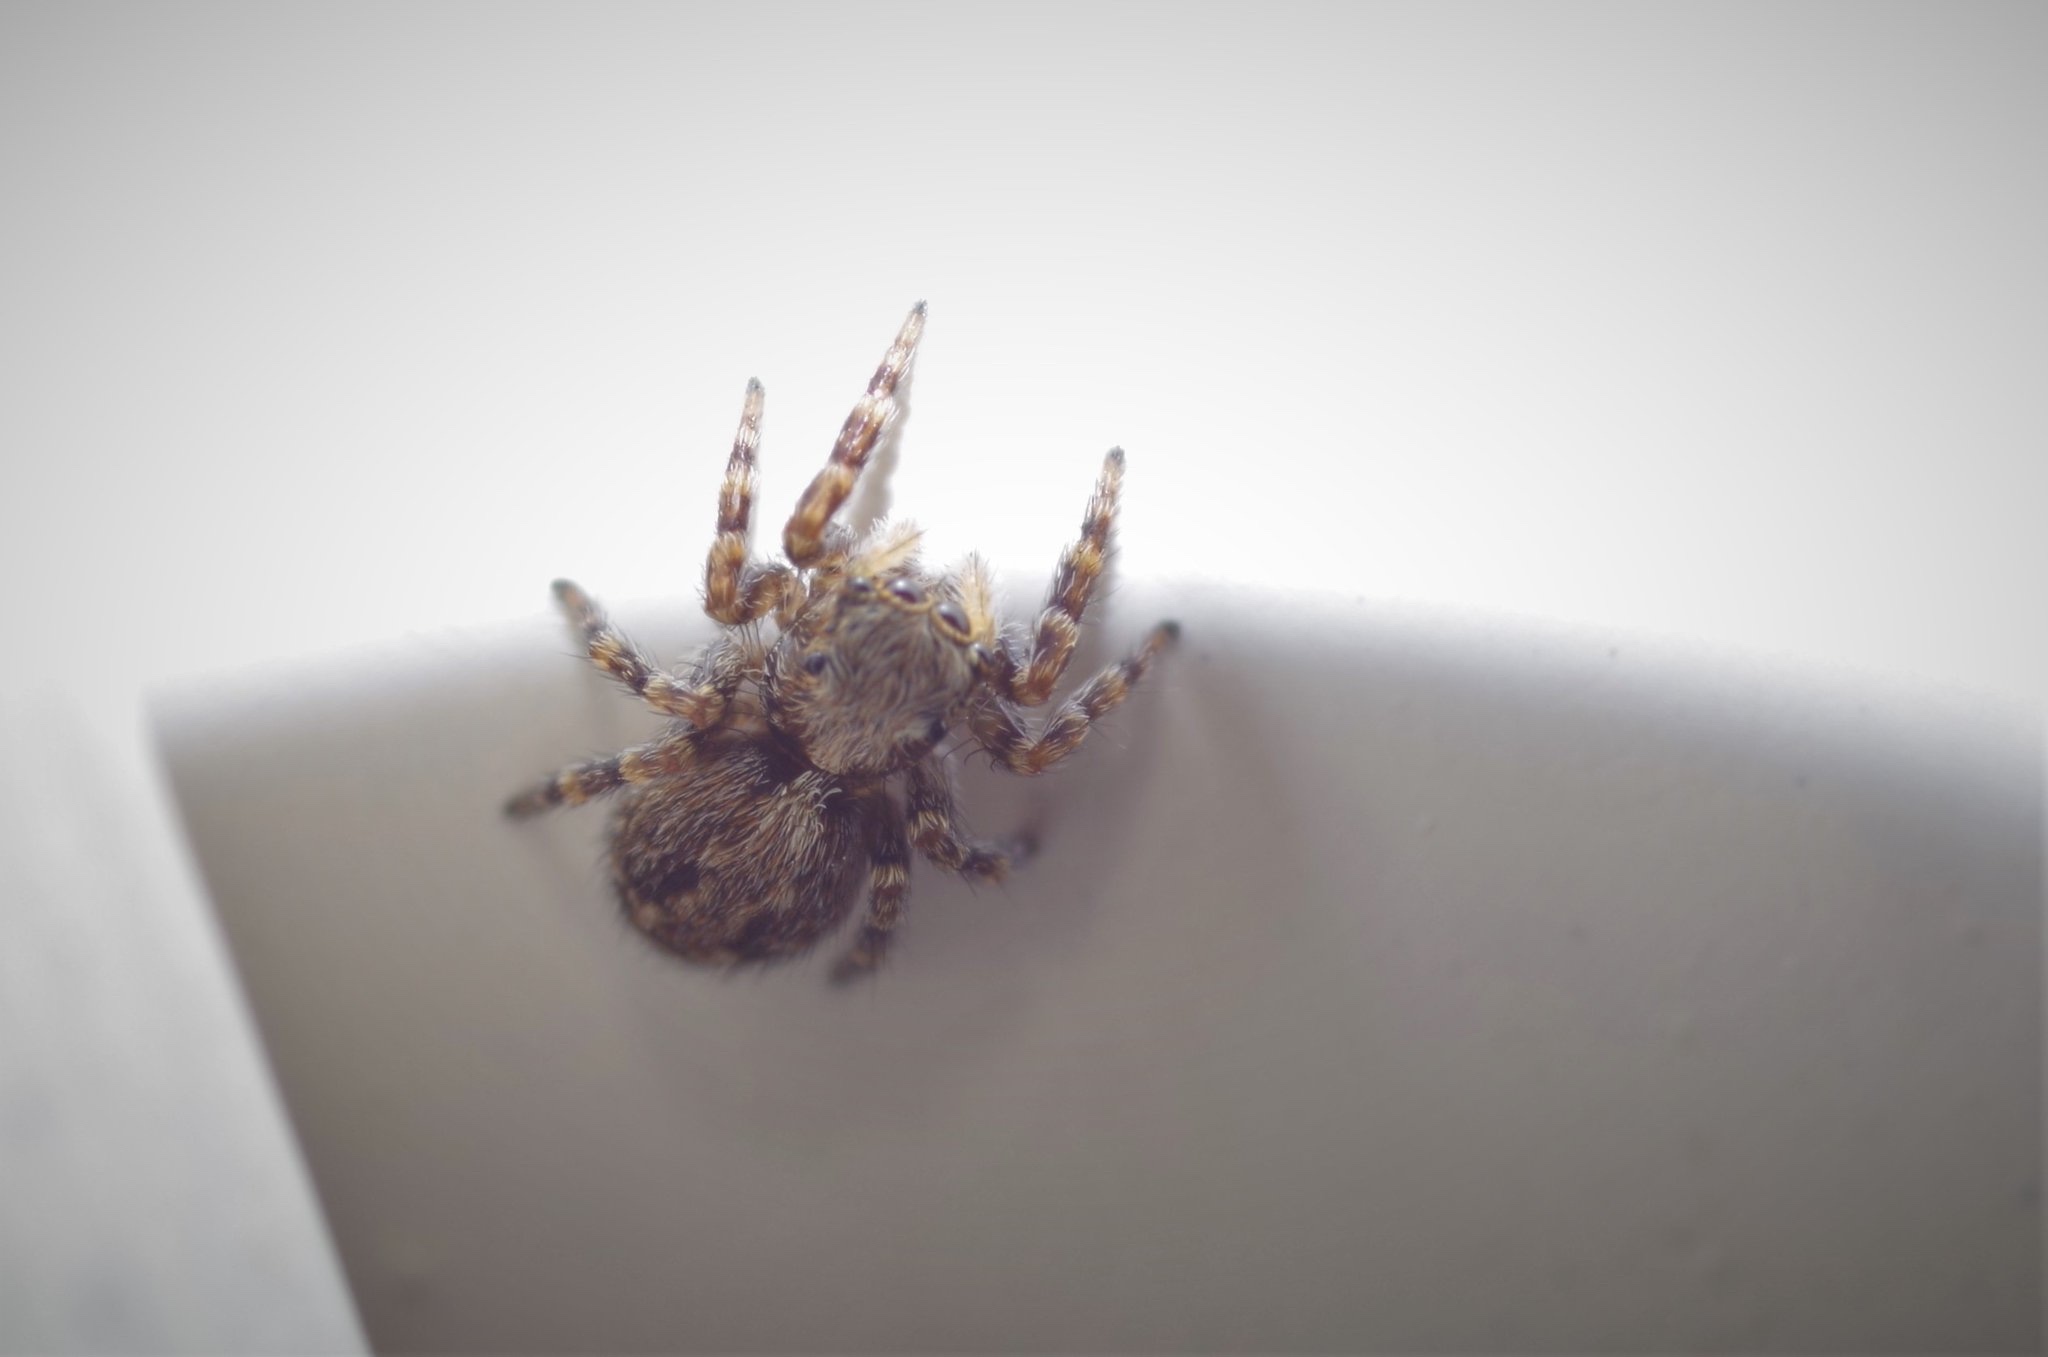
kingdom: Animalia
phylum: Arthropoda
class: Arachnida
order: Araneae
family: Salticidae
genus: Pseudeuophrys
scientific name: Pseudeuophrys lanigera
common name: Jumping spider
